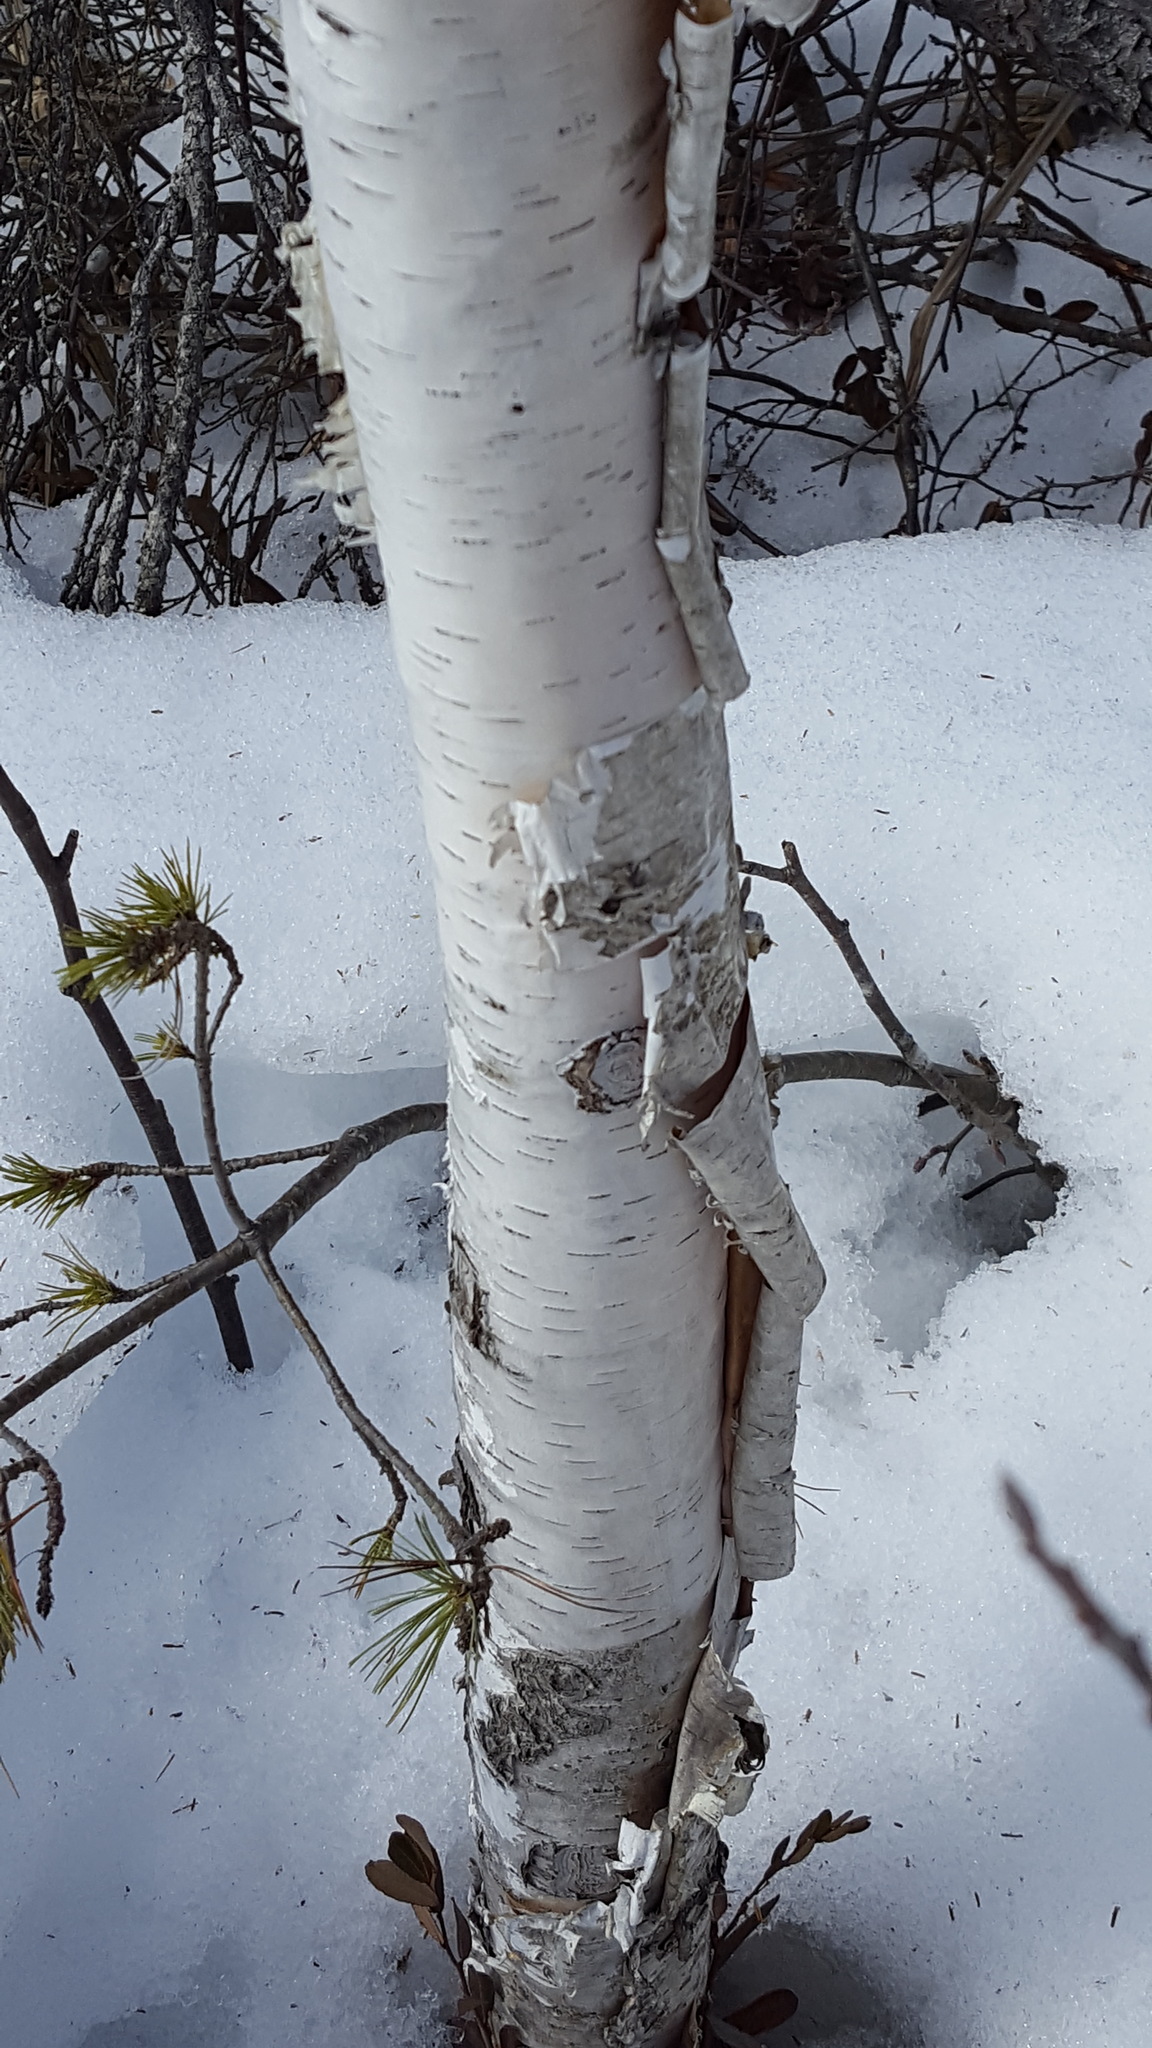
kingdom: Plantae
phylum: Tracheophyta
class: Magnoliopsida
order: Fagales
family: Betulaceae
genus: Betula
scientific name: Betula papyrifera
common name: Paper birch
